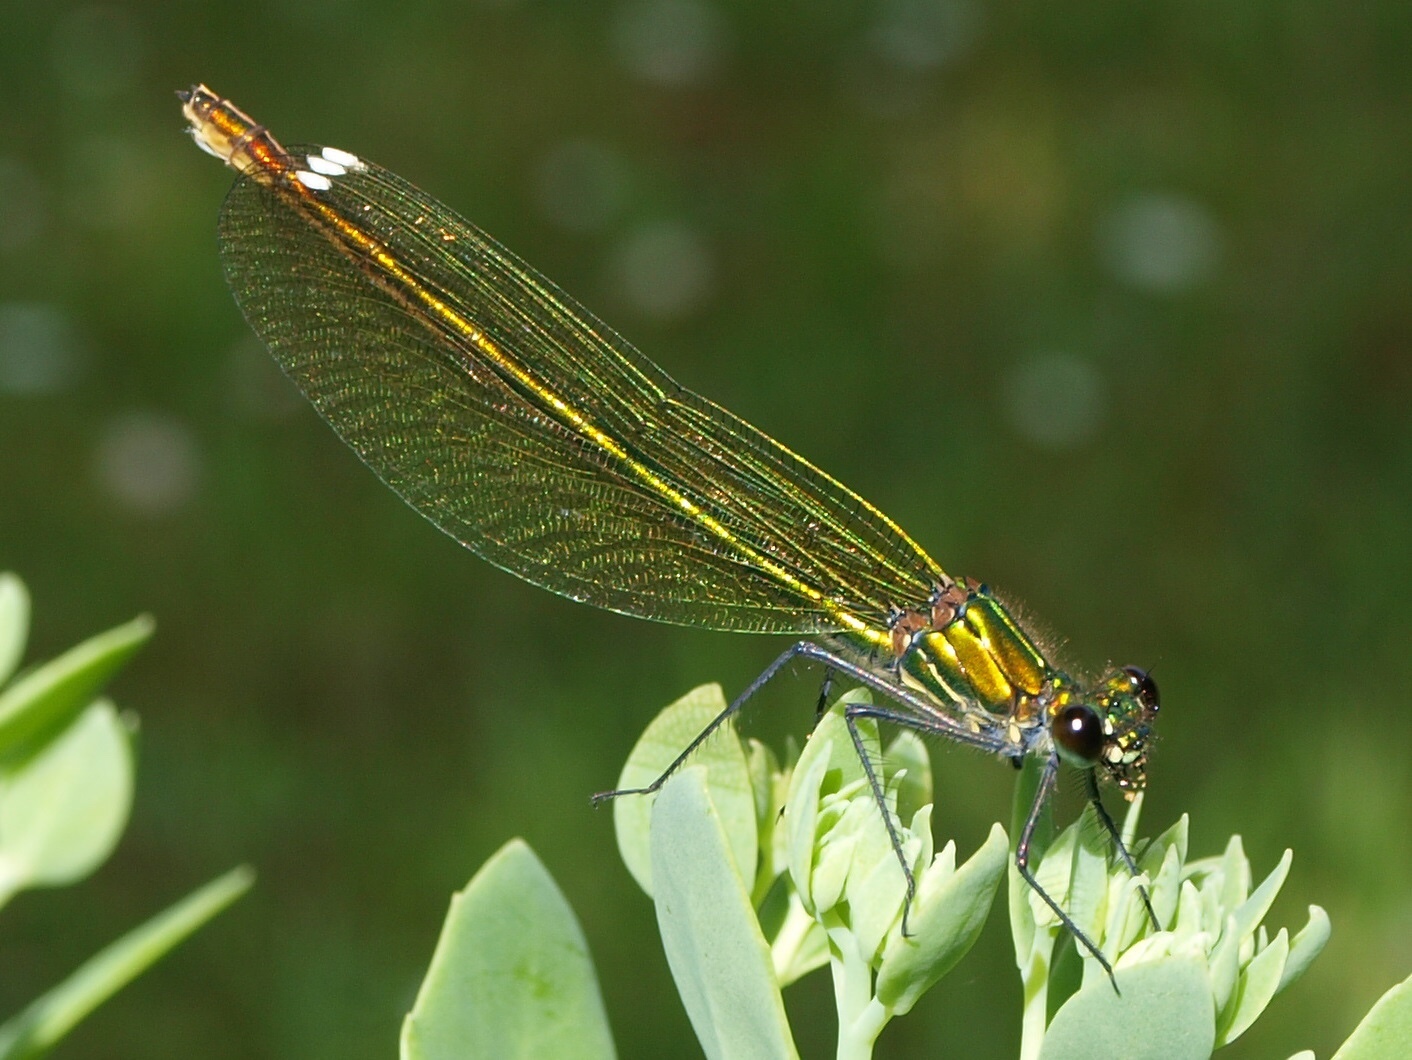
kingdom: Animalia
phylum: Arthropoda
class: Insecta
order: Odonata
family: Calopterygidae
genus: Calopteryx
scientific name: Calopteryx splendens
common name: Banded demoiselle
